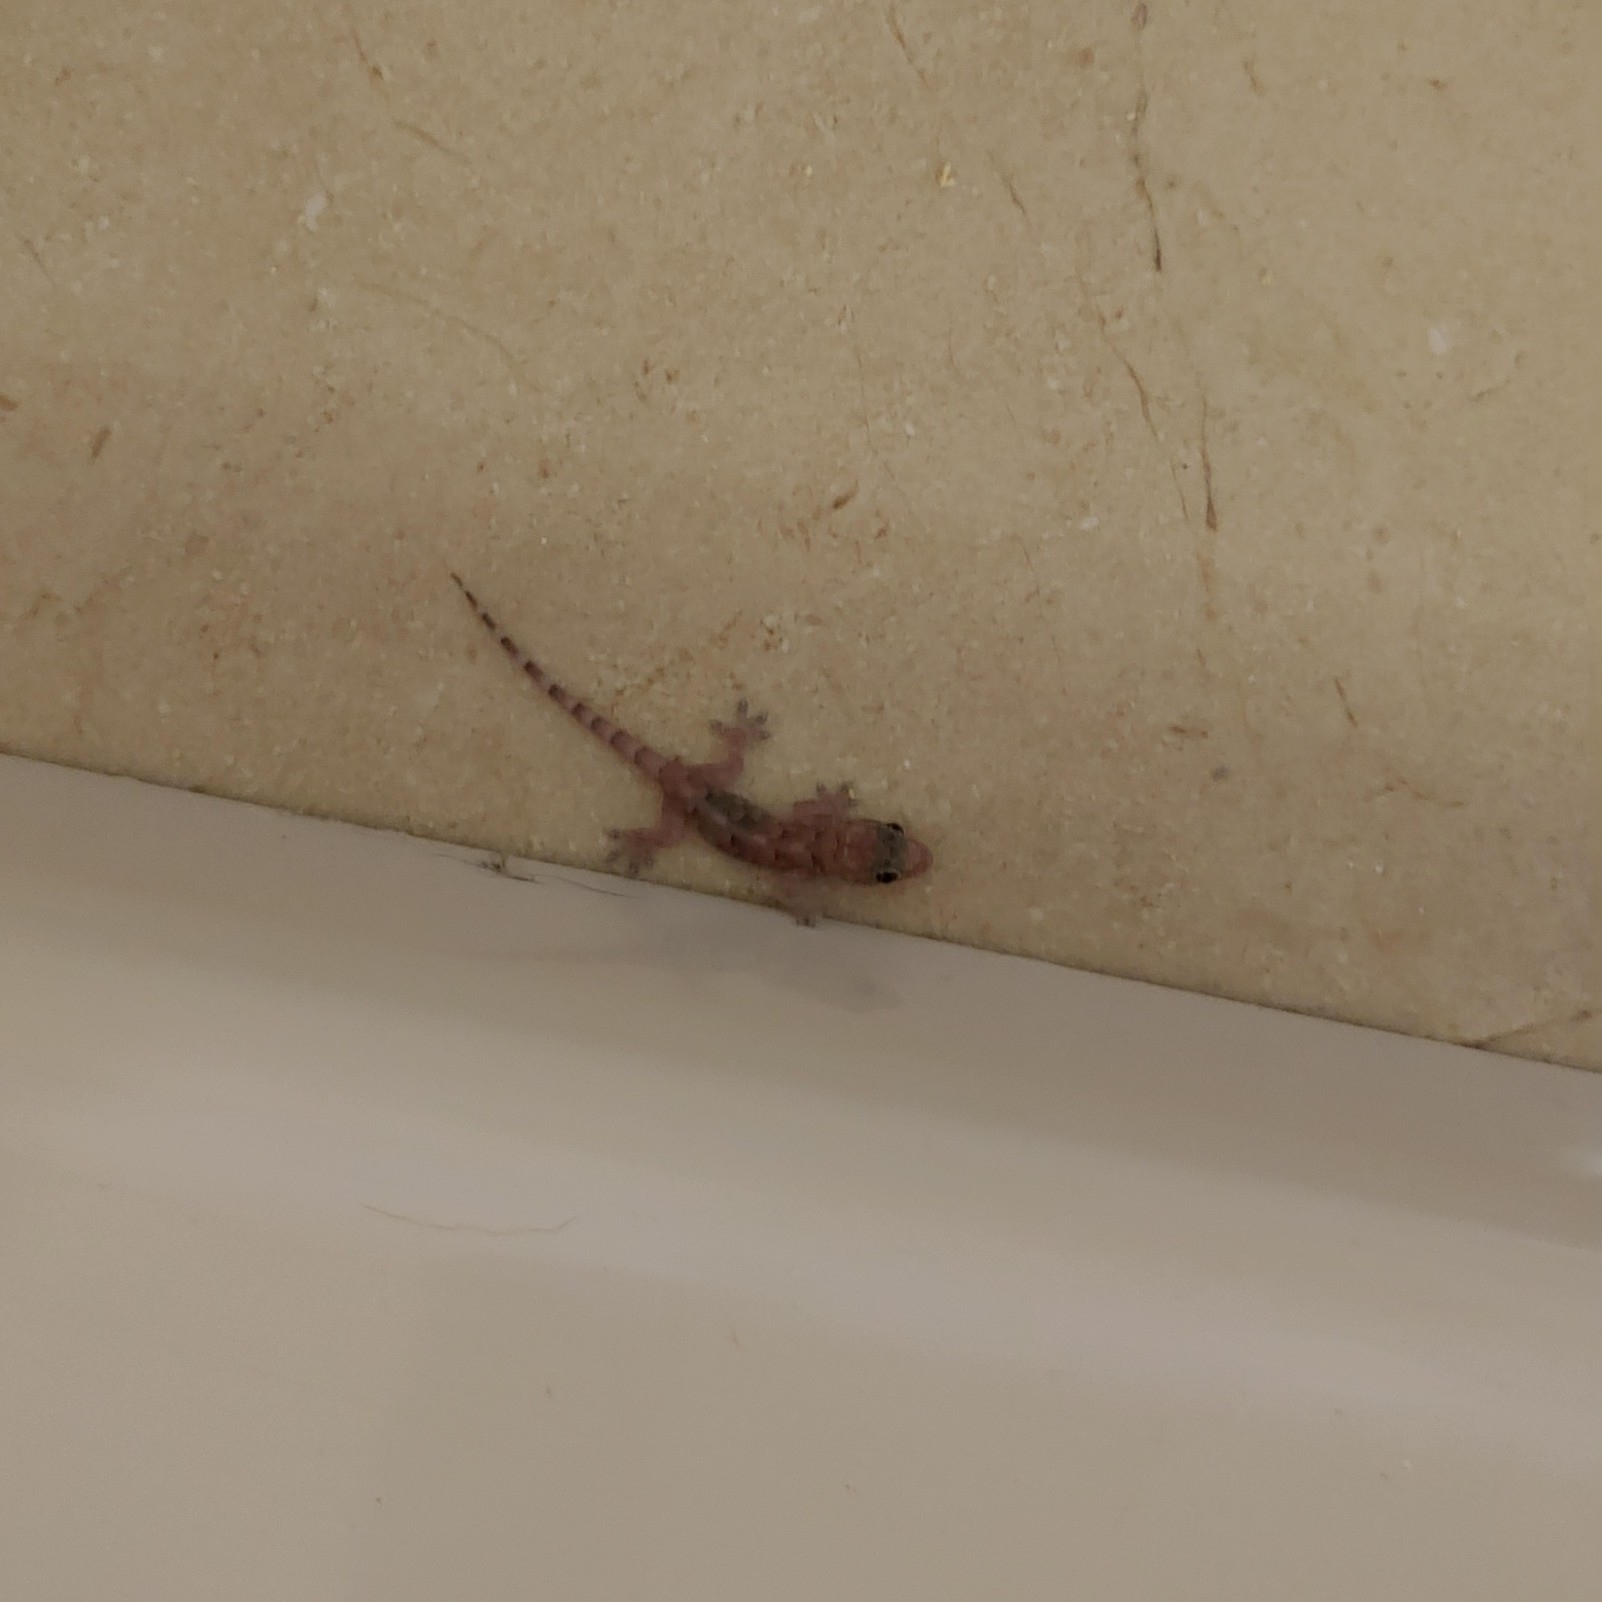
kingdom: Animalia
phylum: Chordata
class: Squamata
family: Gekkonidae
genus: Hemidactylus
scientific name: Hemidactylus mabouia
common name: House gecko
